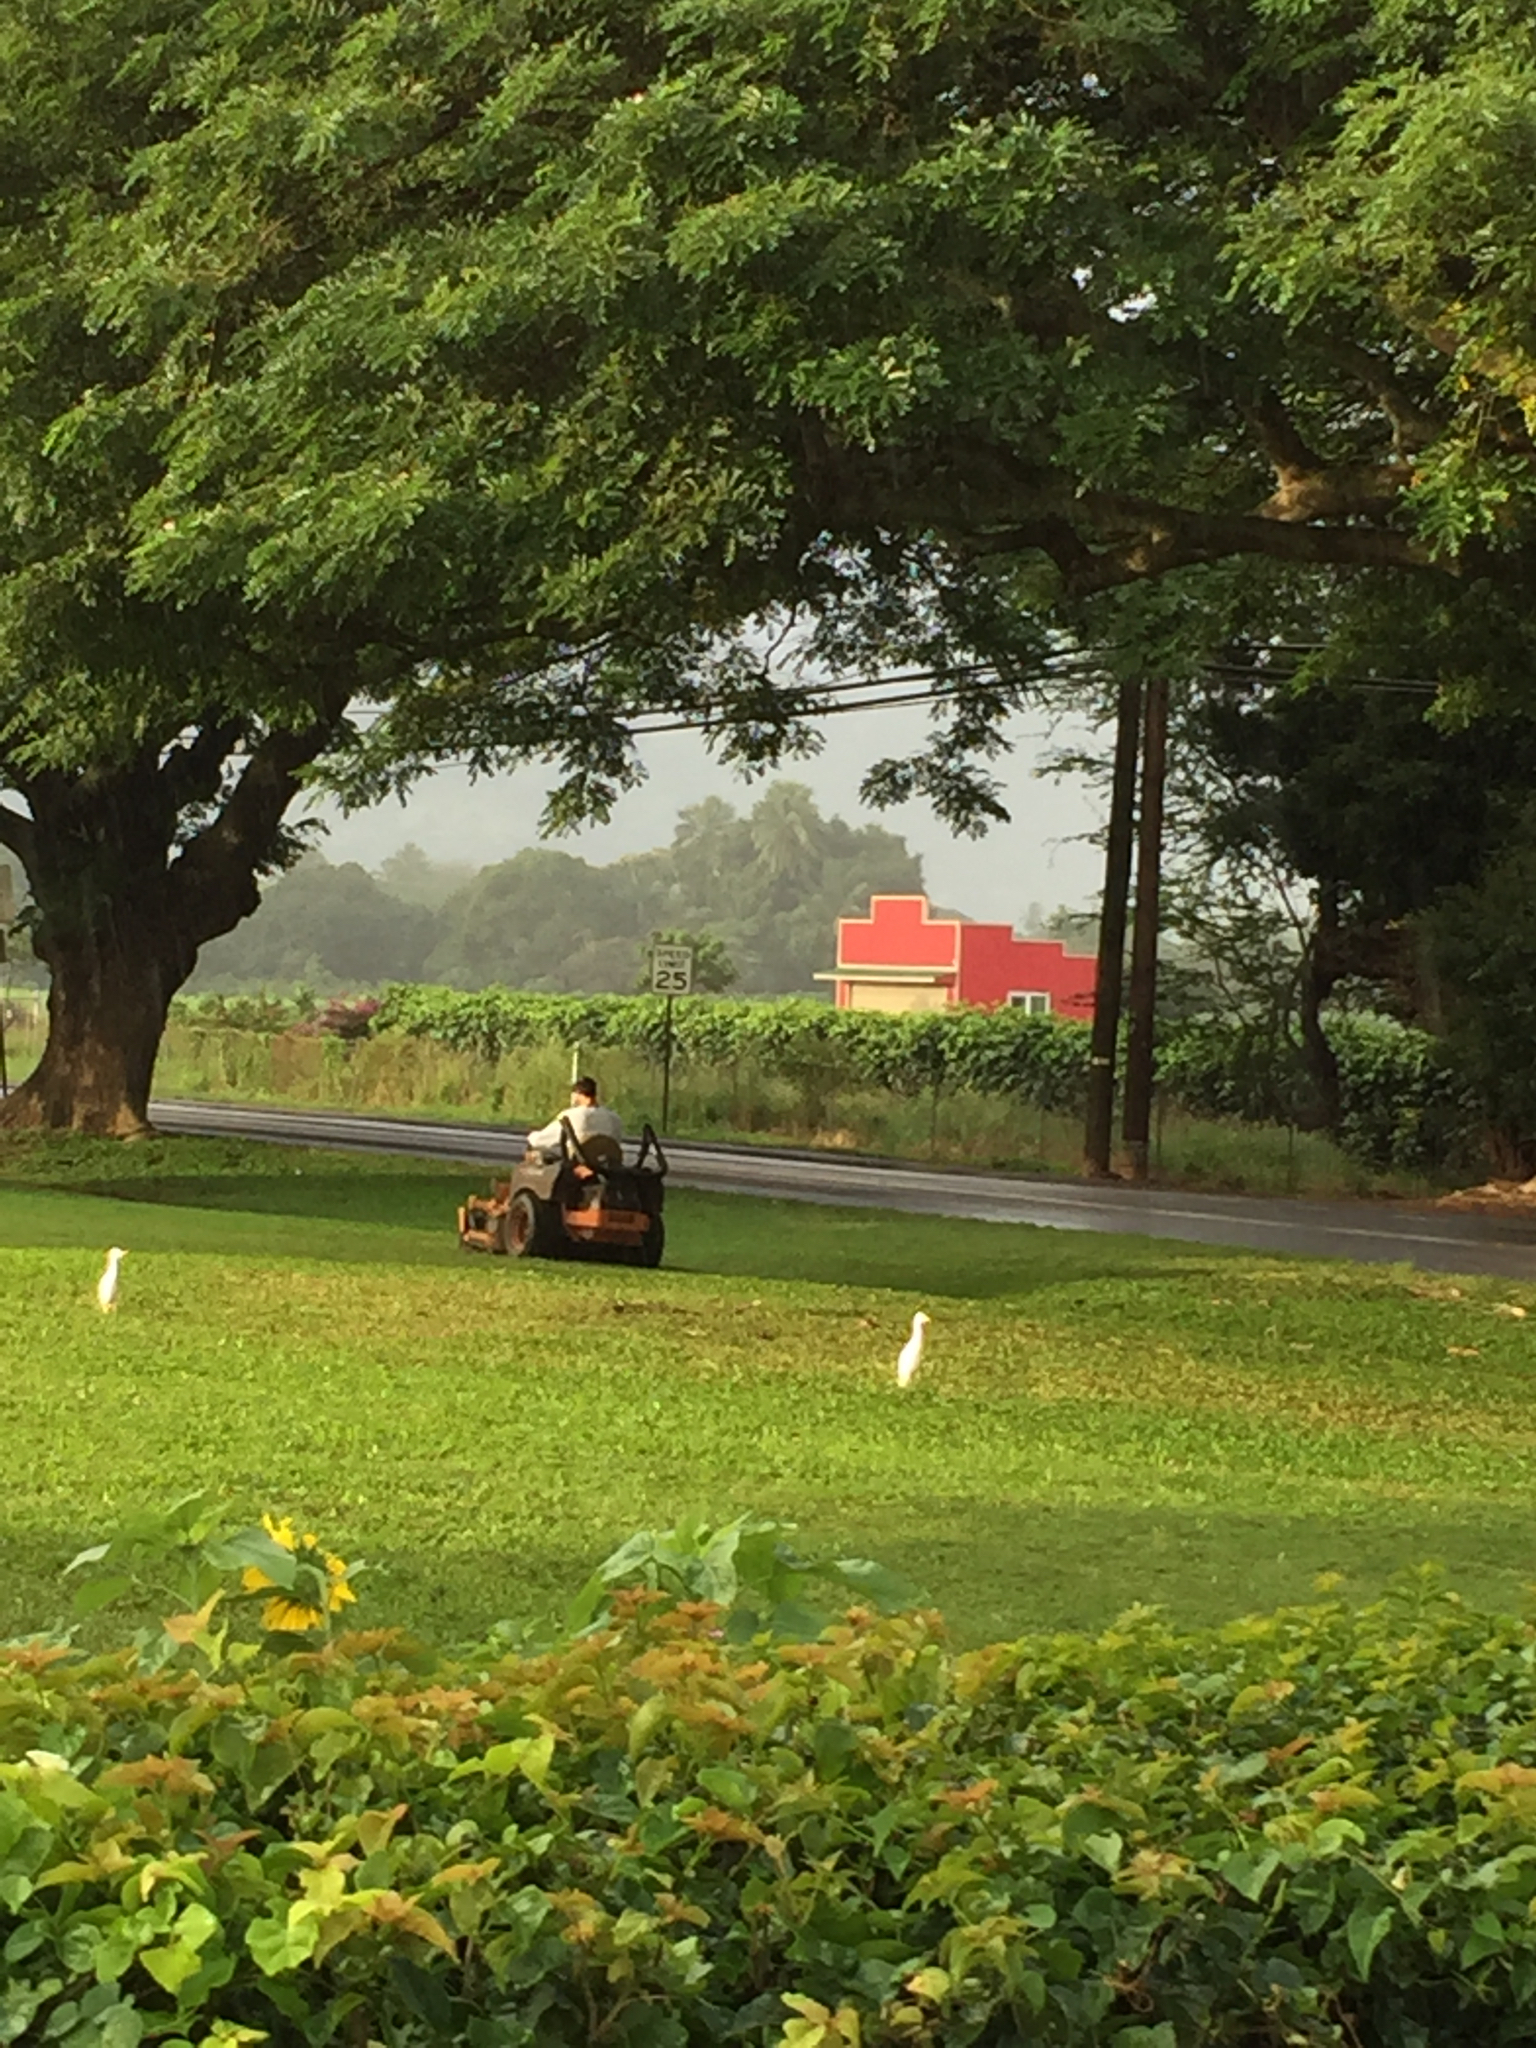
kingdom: Animalia
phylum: Chordata
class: Aves
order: Pelecaniformes
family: Ardeidae
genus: Bubulcus
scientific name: Bubulcus ibis
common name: Cattle egret
